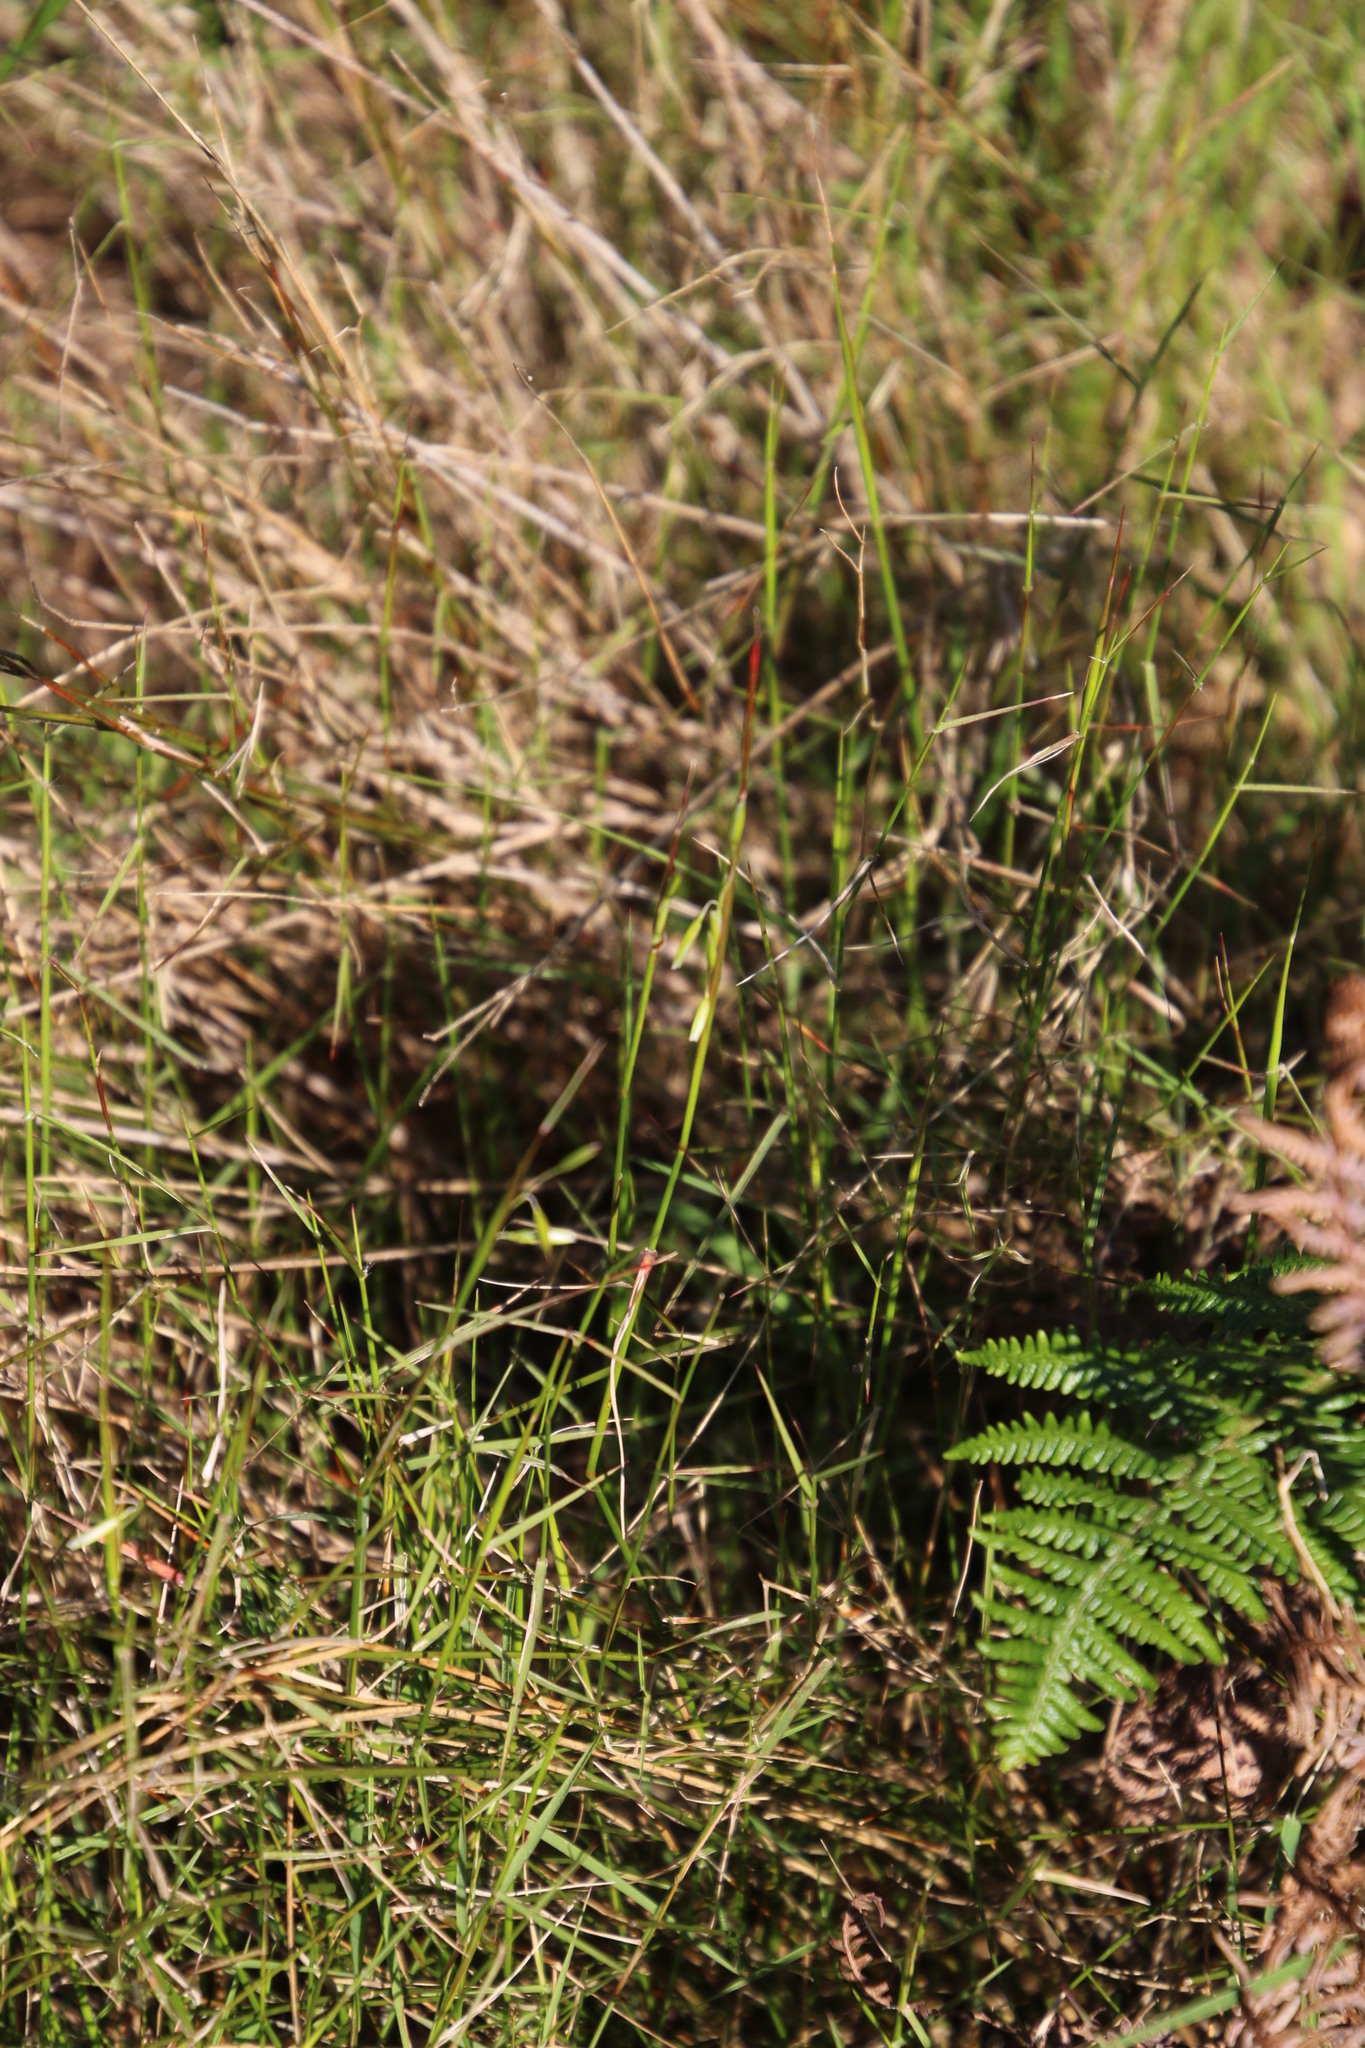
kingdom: Plantae
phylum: Tracheophyta
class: Liliopsida
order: Poales
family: Poaceae
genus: Tribolium
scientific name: Tribolium uniolae
